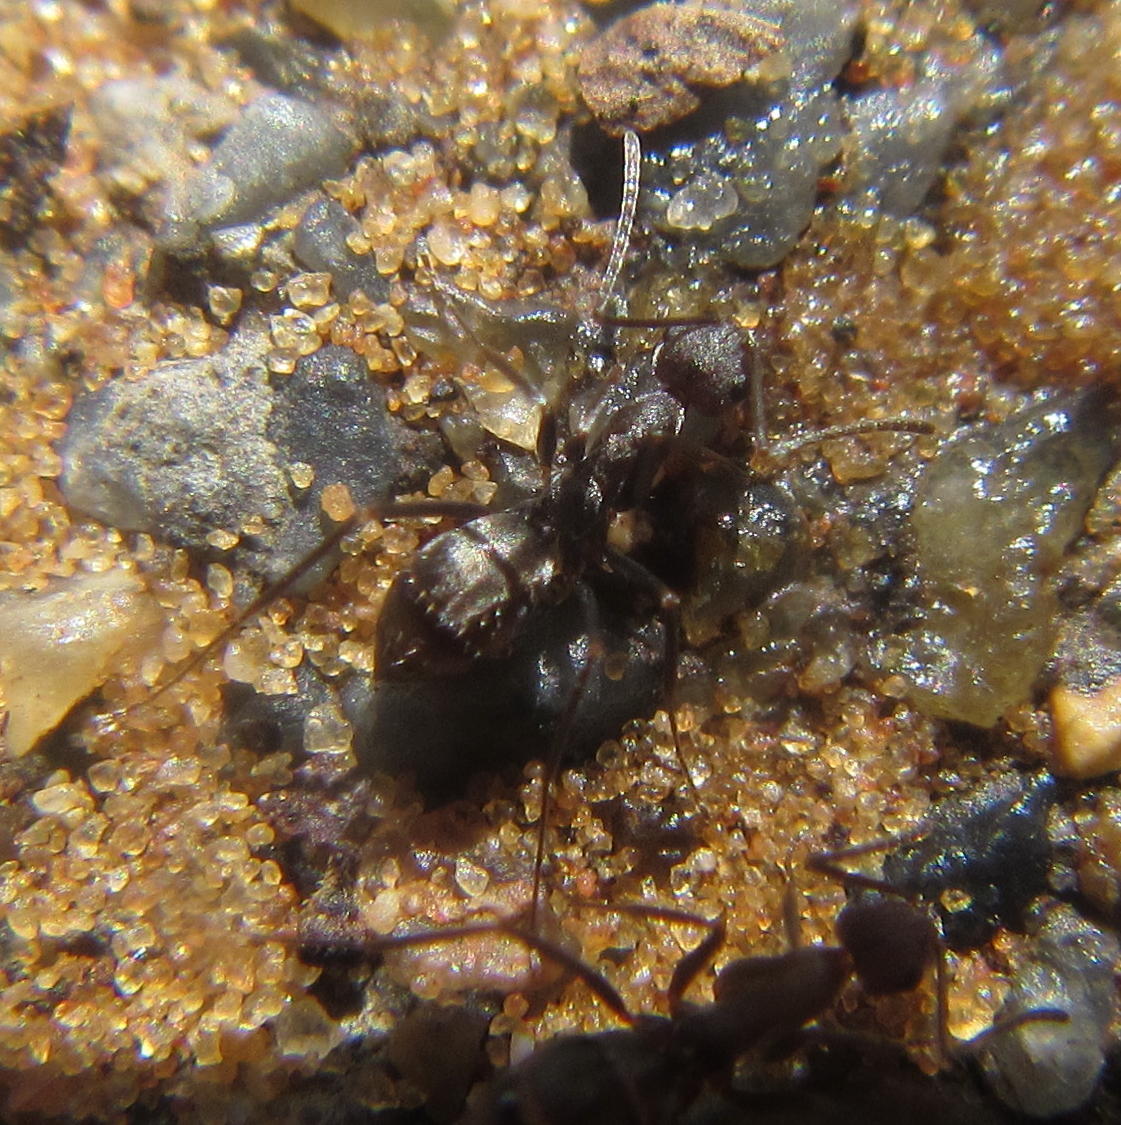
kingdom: Animalia
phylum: Arthropoda
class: Insecta
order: Hymenoptera
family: Formicidae
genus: Anoplolepis
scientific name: Anoplolepis custodiens
